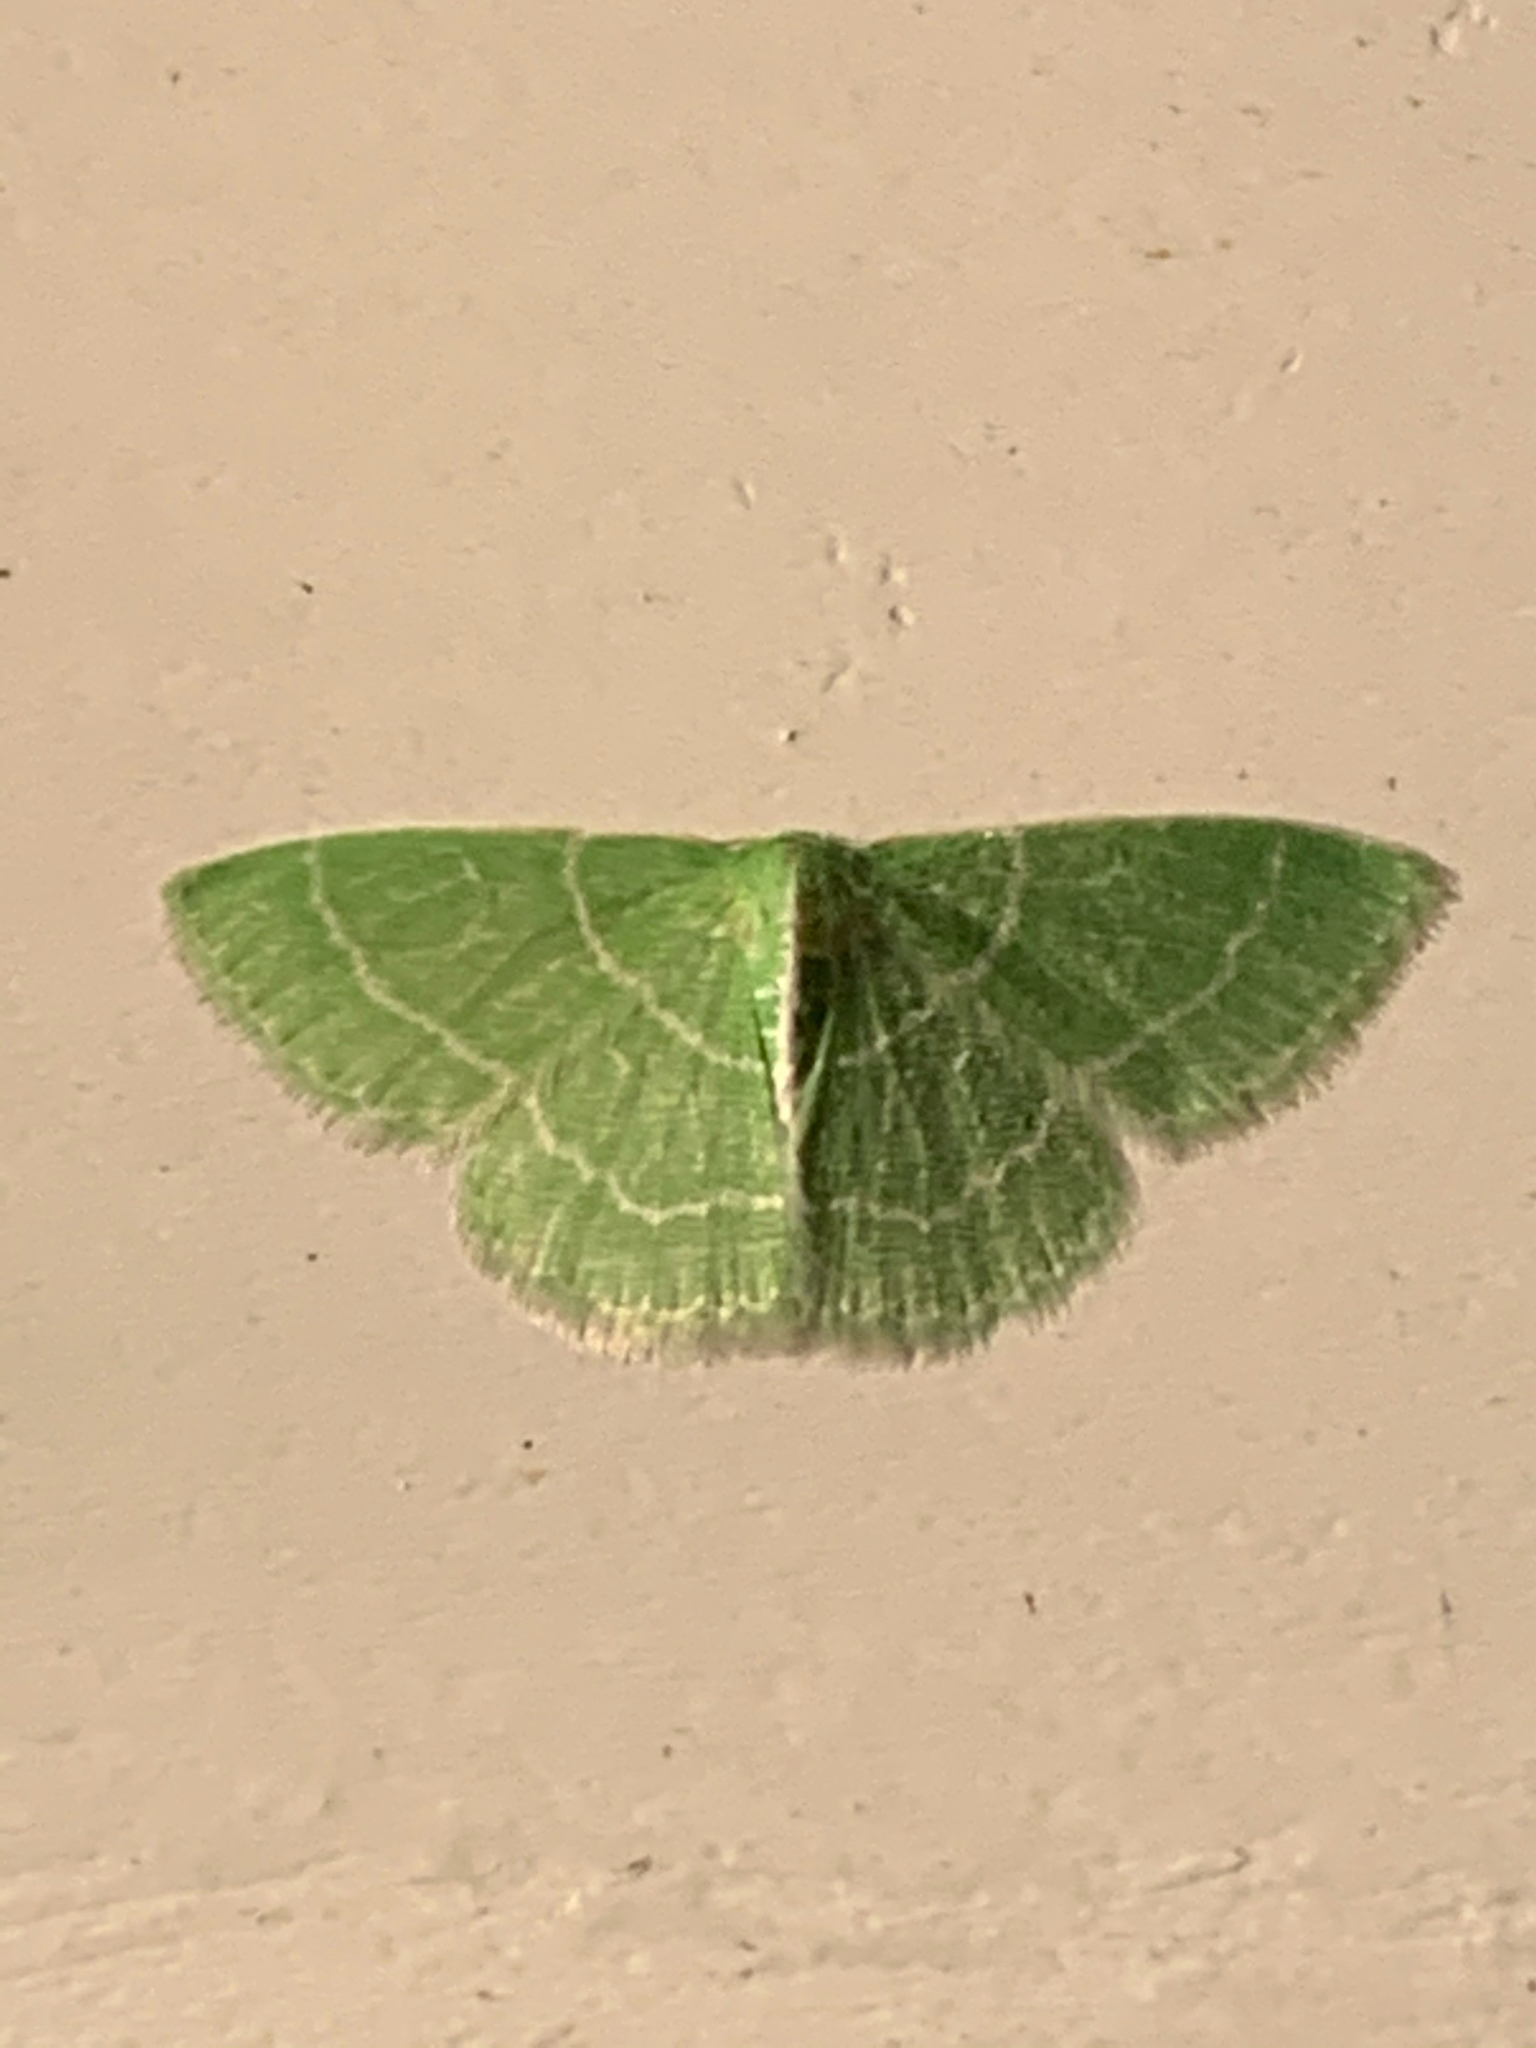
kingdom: Animalia
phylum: Arthropoda
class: Insecta
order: Lepidoptera
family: Geometridae
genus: Synchlora
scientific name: Synchlora aerata
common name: Wavy-lined emerald
